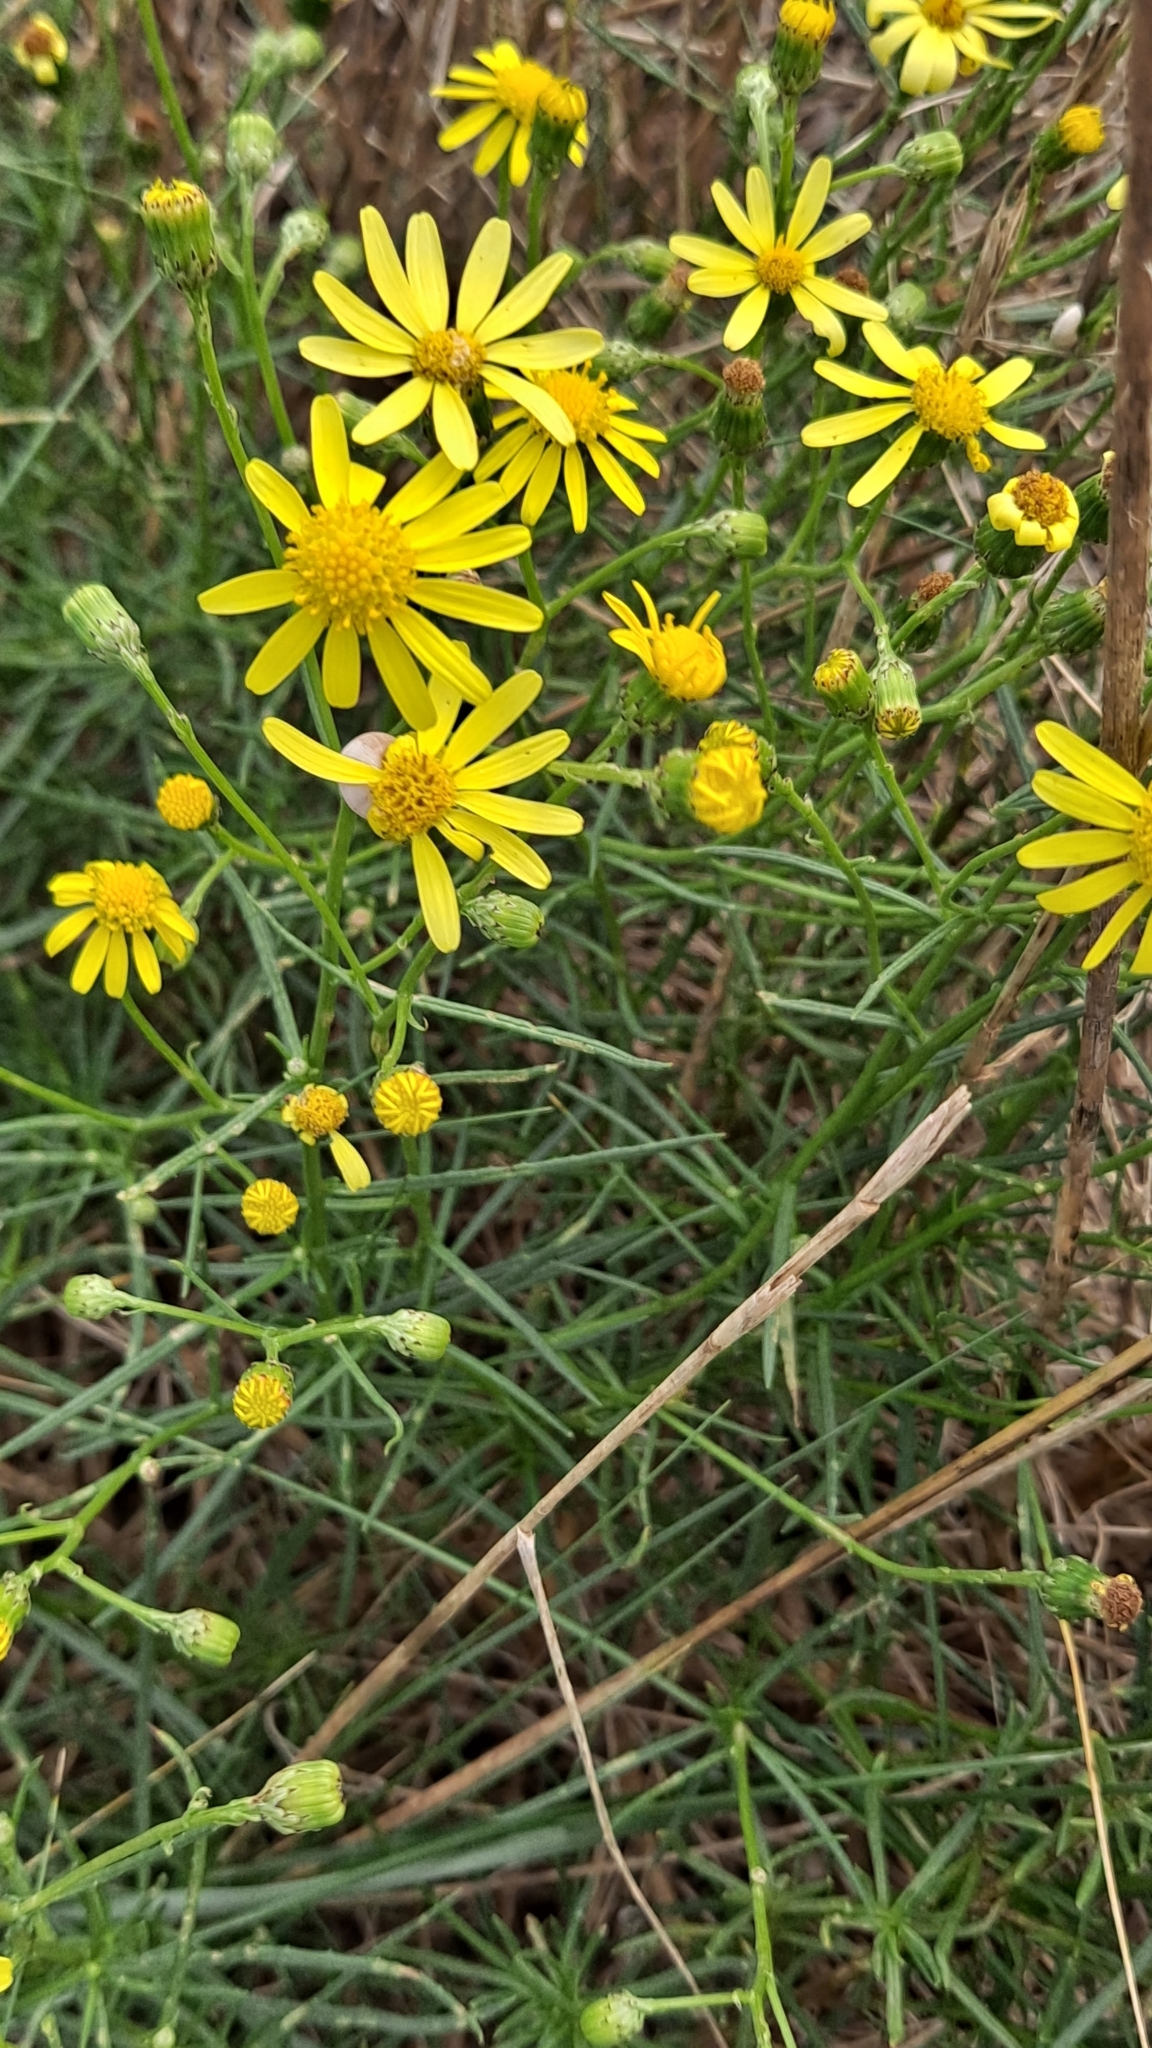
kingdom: Plantae
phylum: Tracheophyta
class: Magnoliopsida
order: Asterales
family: Asteraceae
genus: Senecio
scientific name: Senecio inaequidens
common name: Narrow-leaved ragwort
